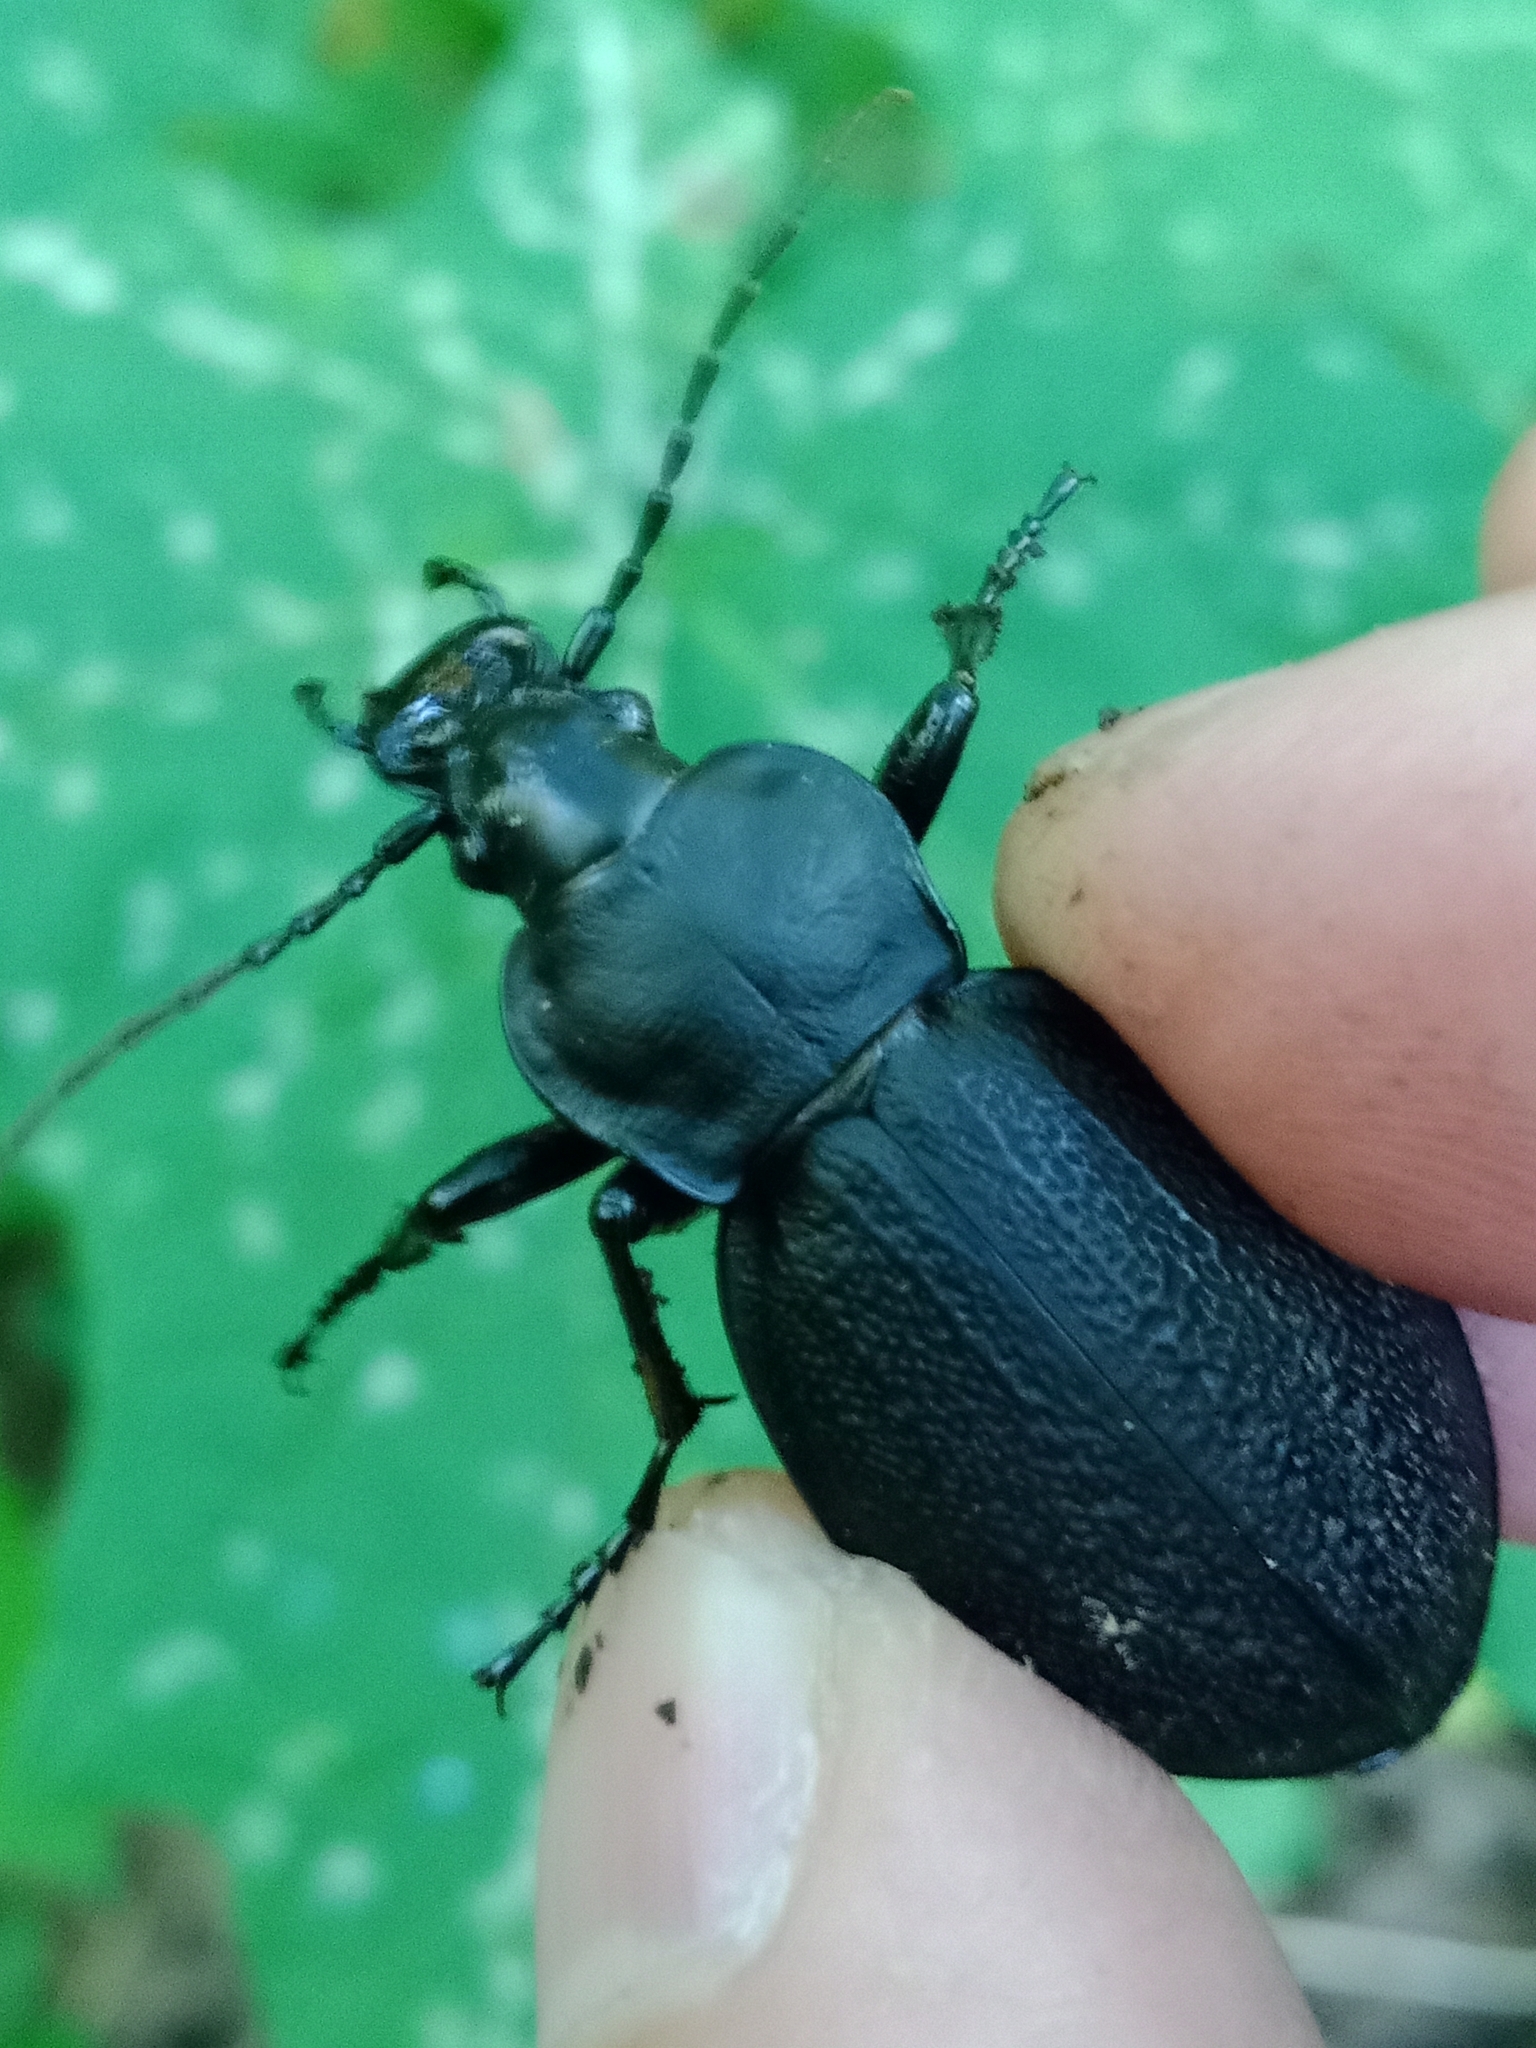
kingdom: Animalia
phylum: Arthropoda
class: Insecta
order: Coleoptera
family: Carabidae
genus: Carabus
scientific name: Carabus coriaceus
